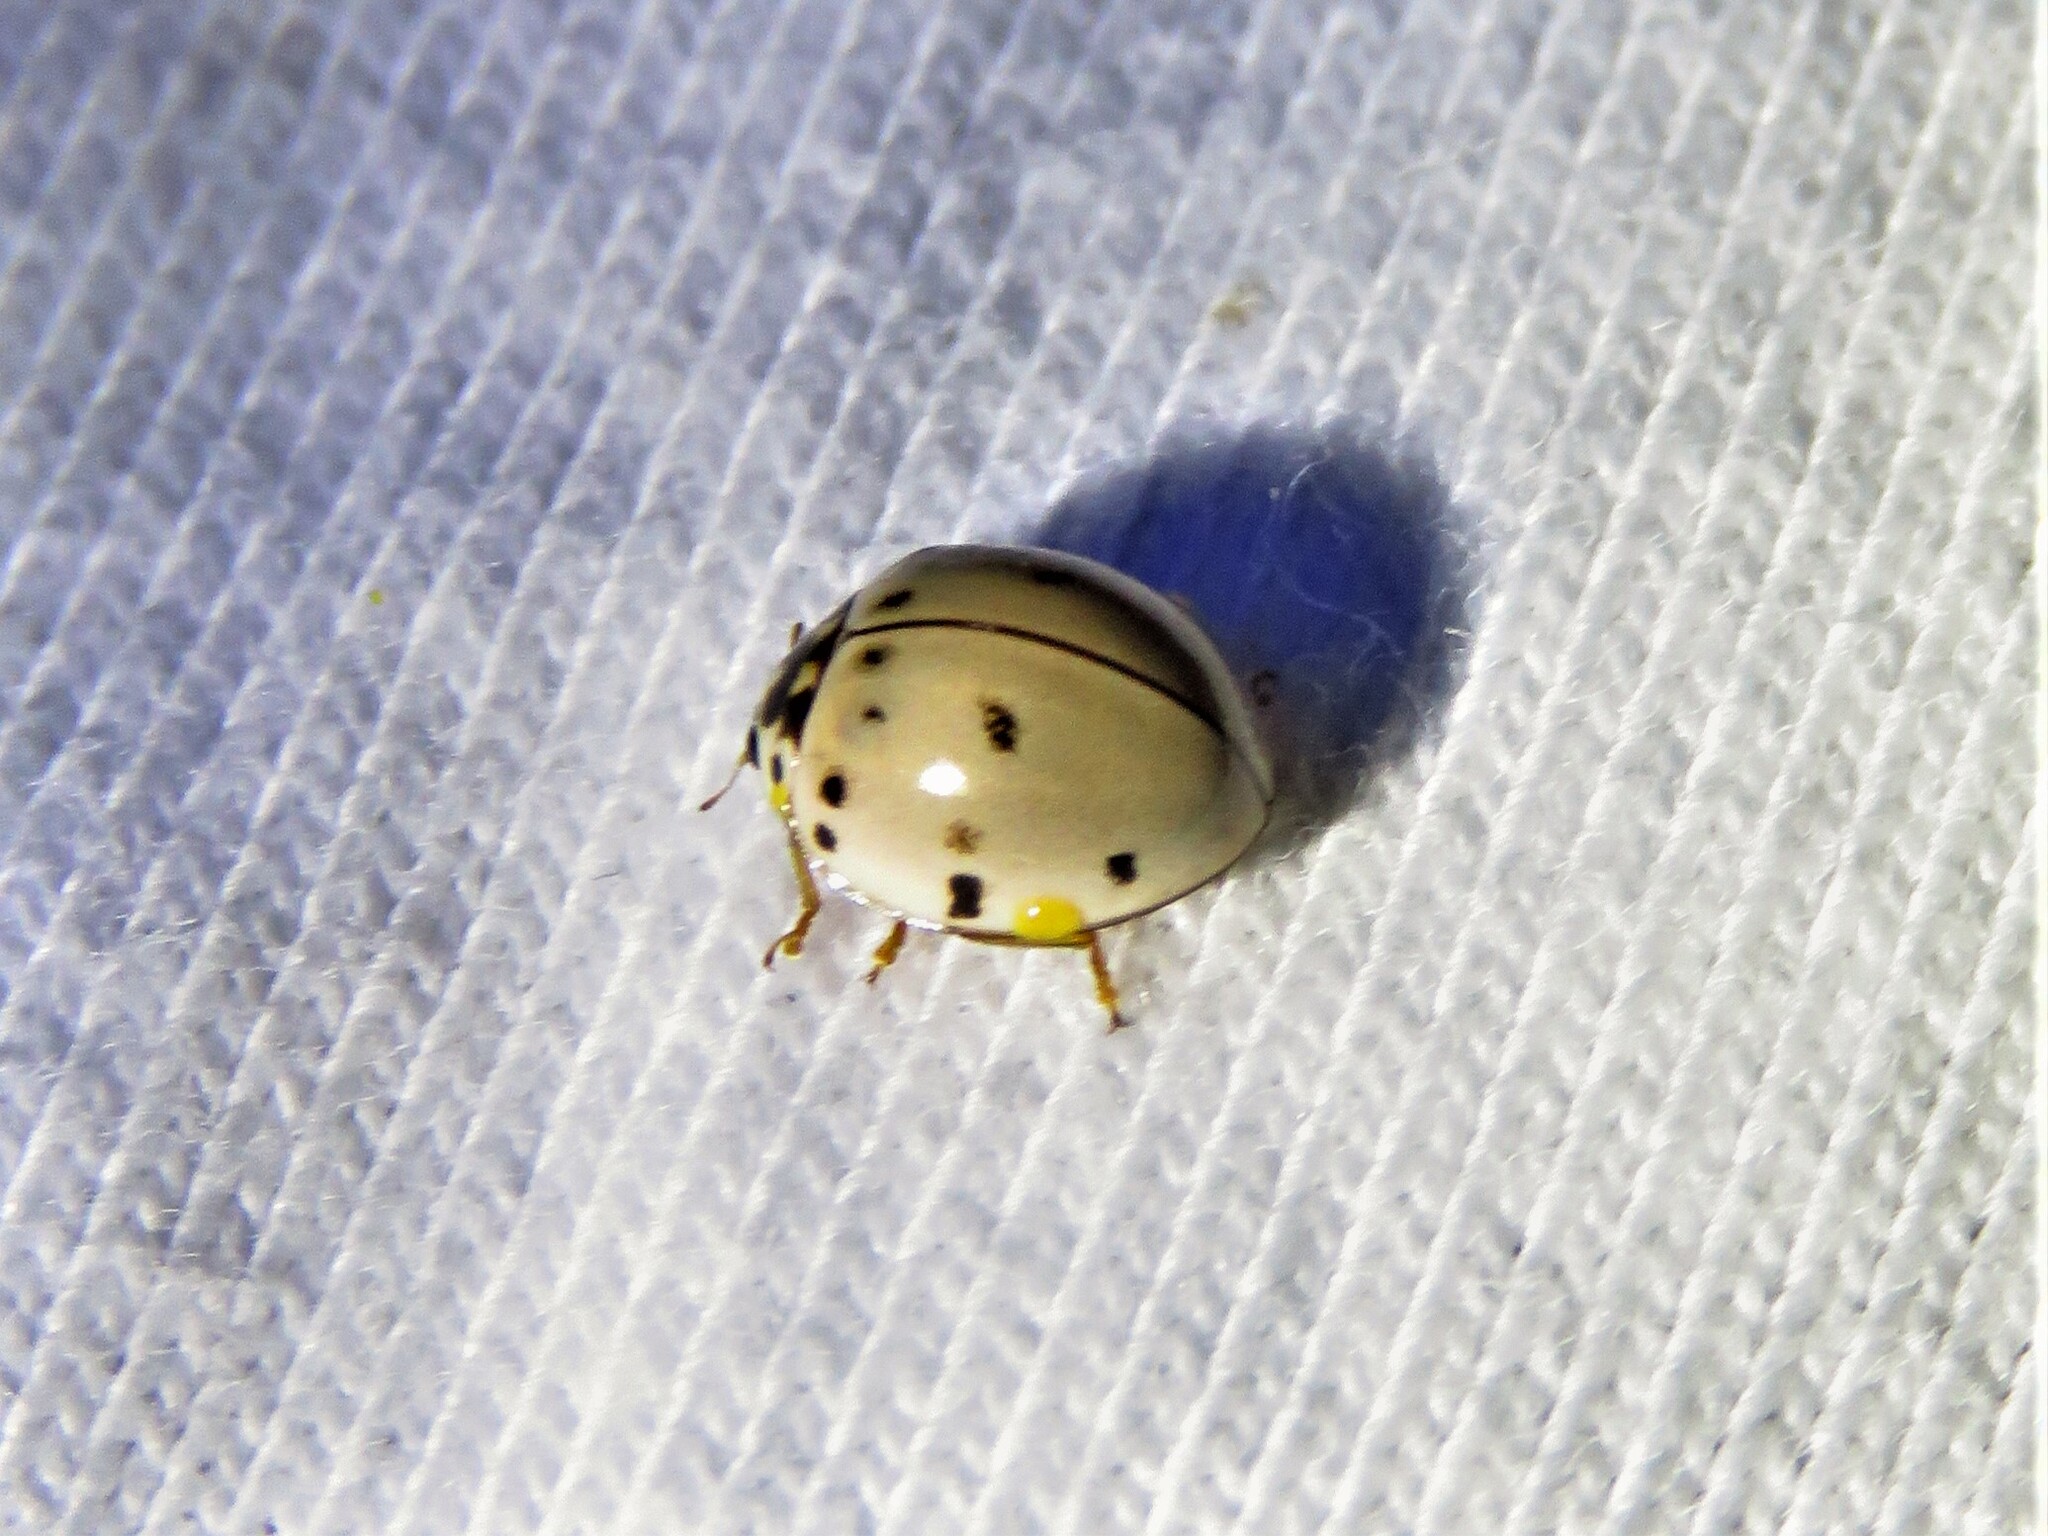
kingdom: Animalia
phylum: Arthropoda
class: Insecta
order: Coleoptera
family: Coccinellidae
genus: Olla
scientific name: Olla v-nigrum
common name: Ashy gray lady beetle
